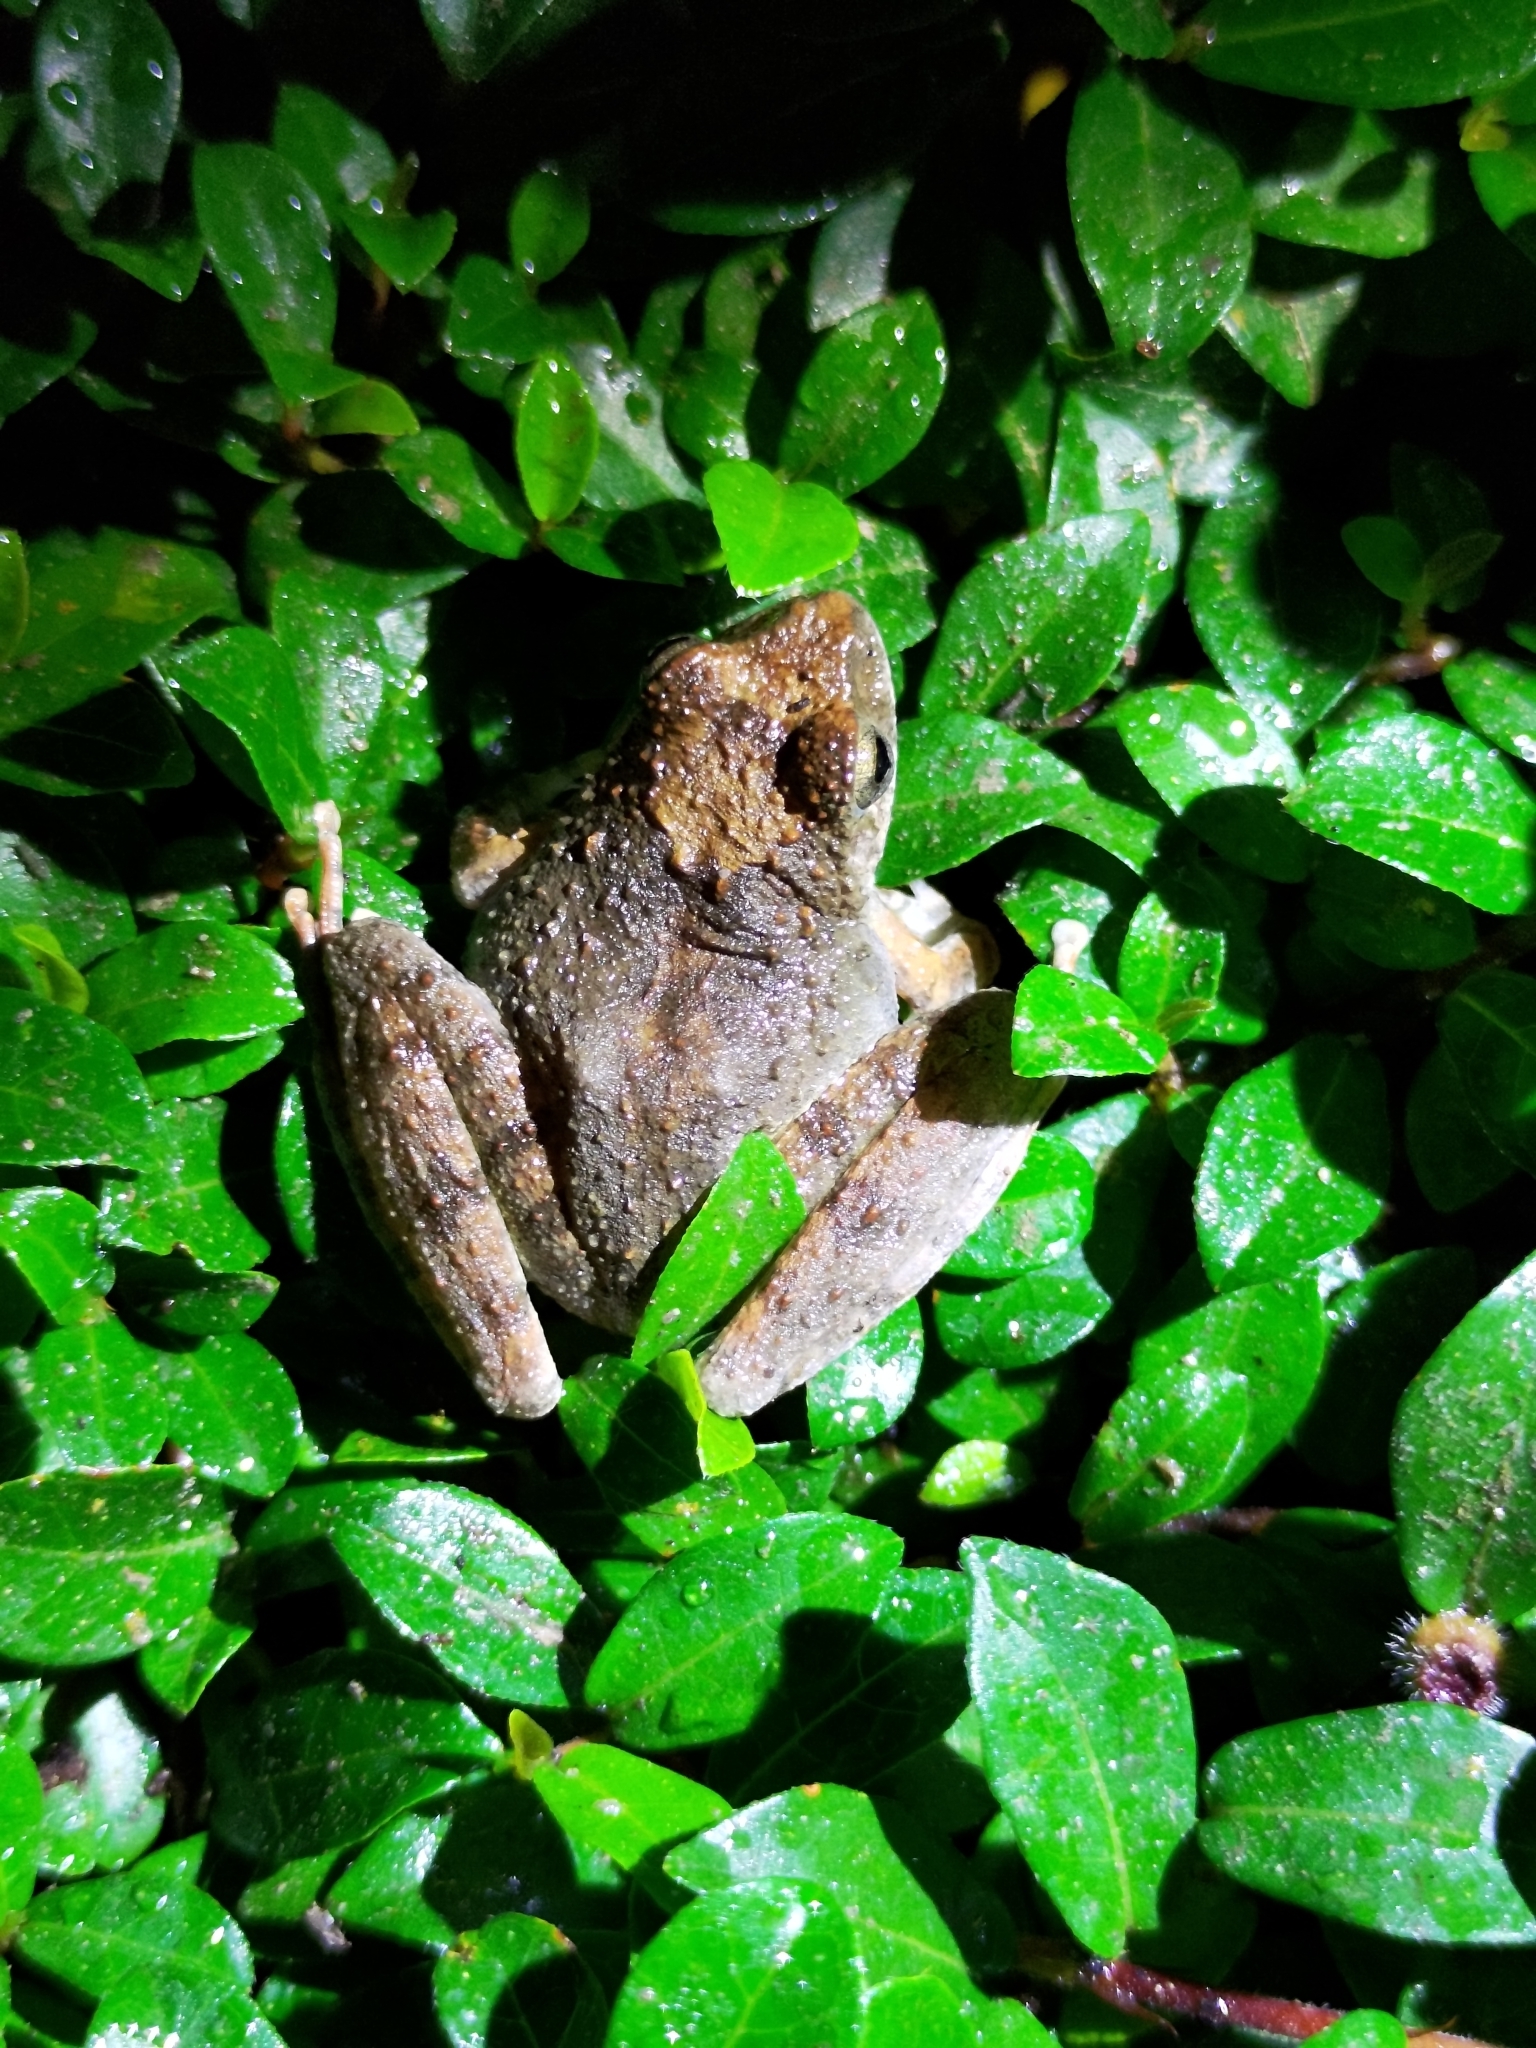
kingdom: Animalia
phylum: Chordata
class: Amphibia
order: Anura
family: Rhacophoridae
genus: Buergeria
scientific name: Buergeria otai
